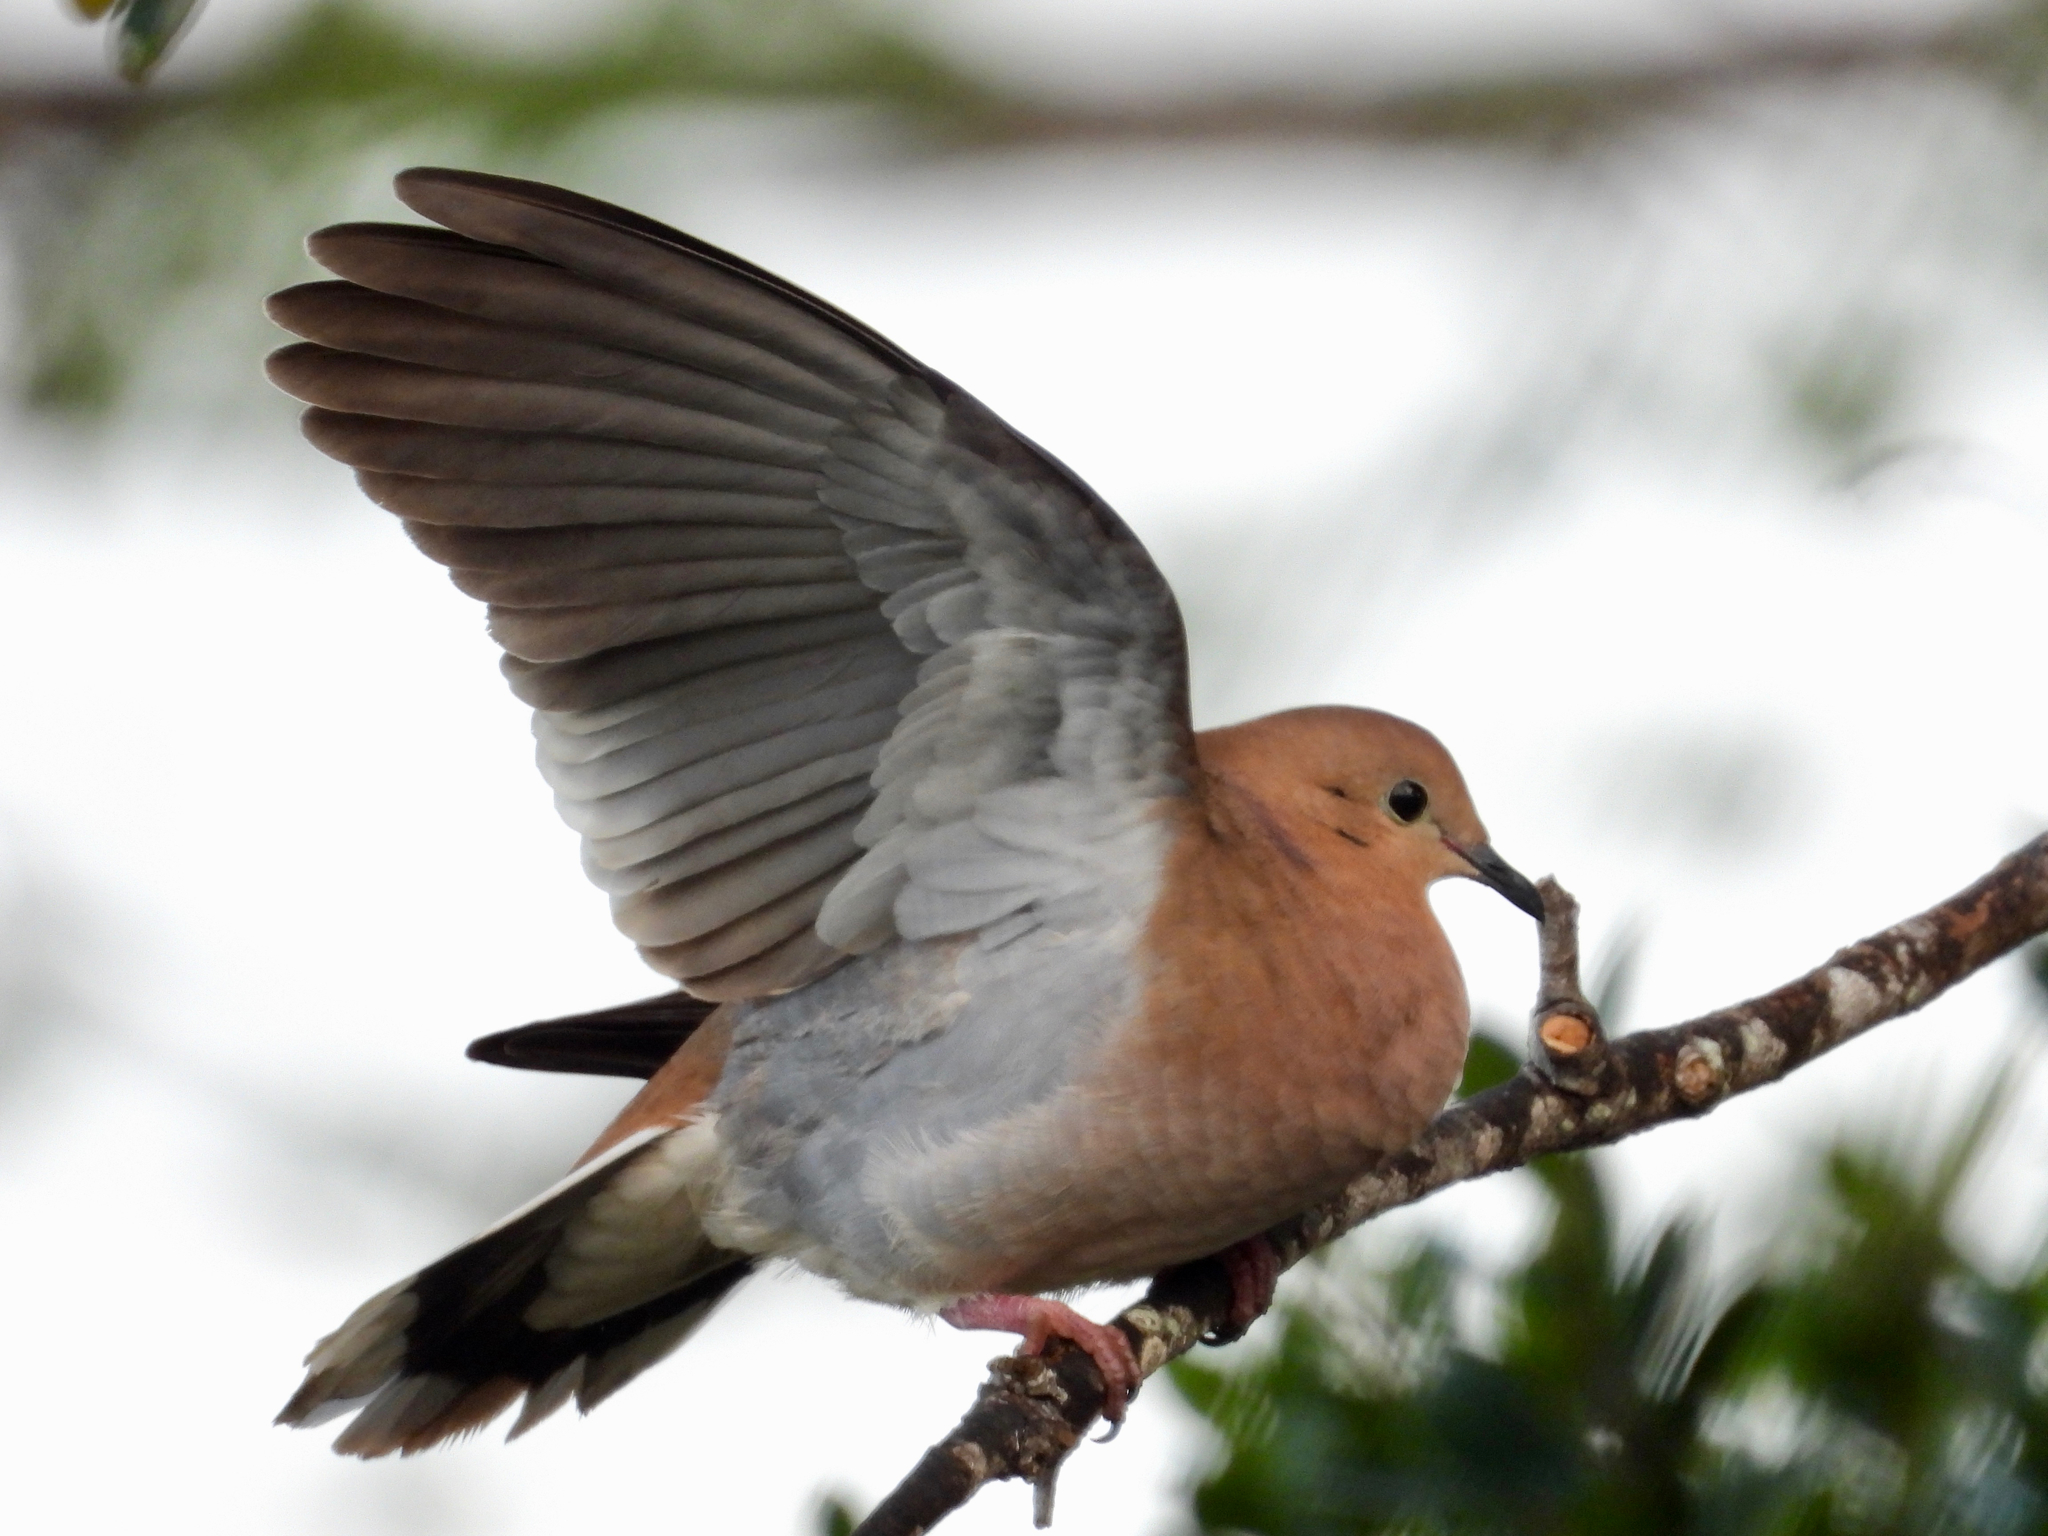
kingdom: Animalia
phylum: Chordata
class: Aves
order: Columbiformes
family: Columbidae
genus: Zenaida
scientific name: Zenaida aurita
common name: Zenaida dove
